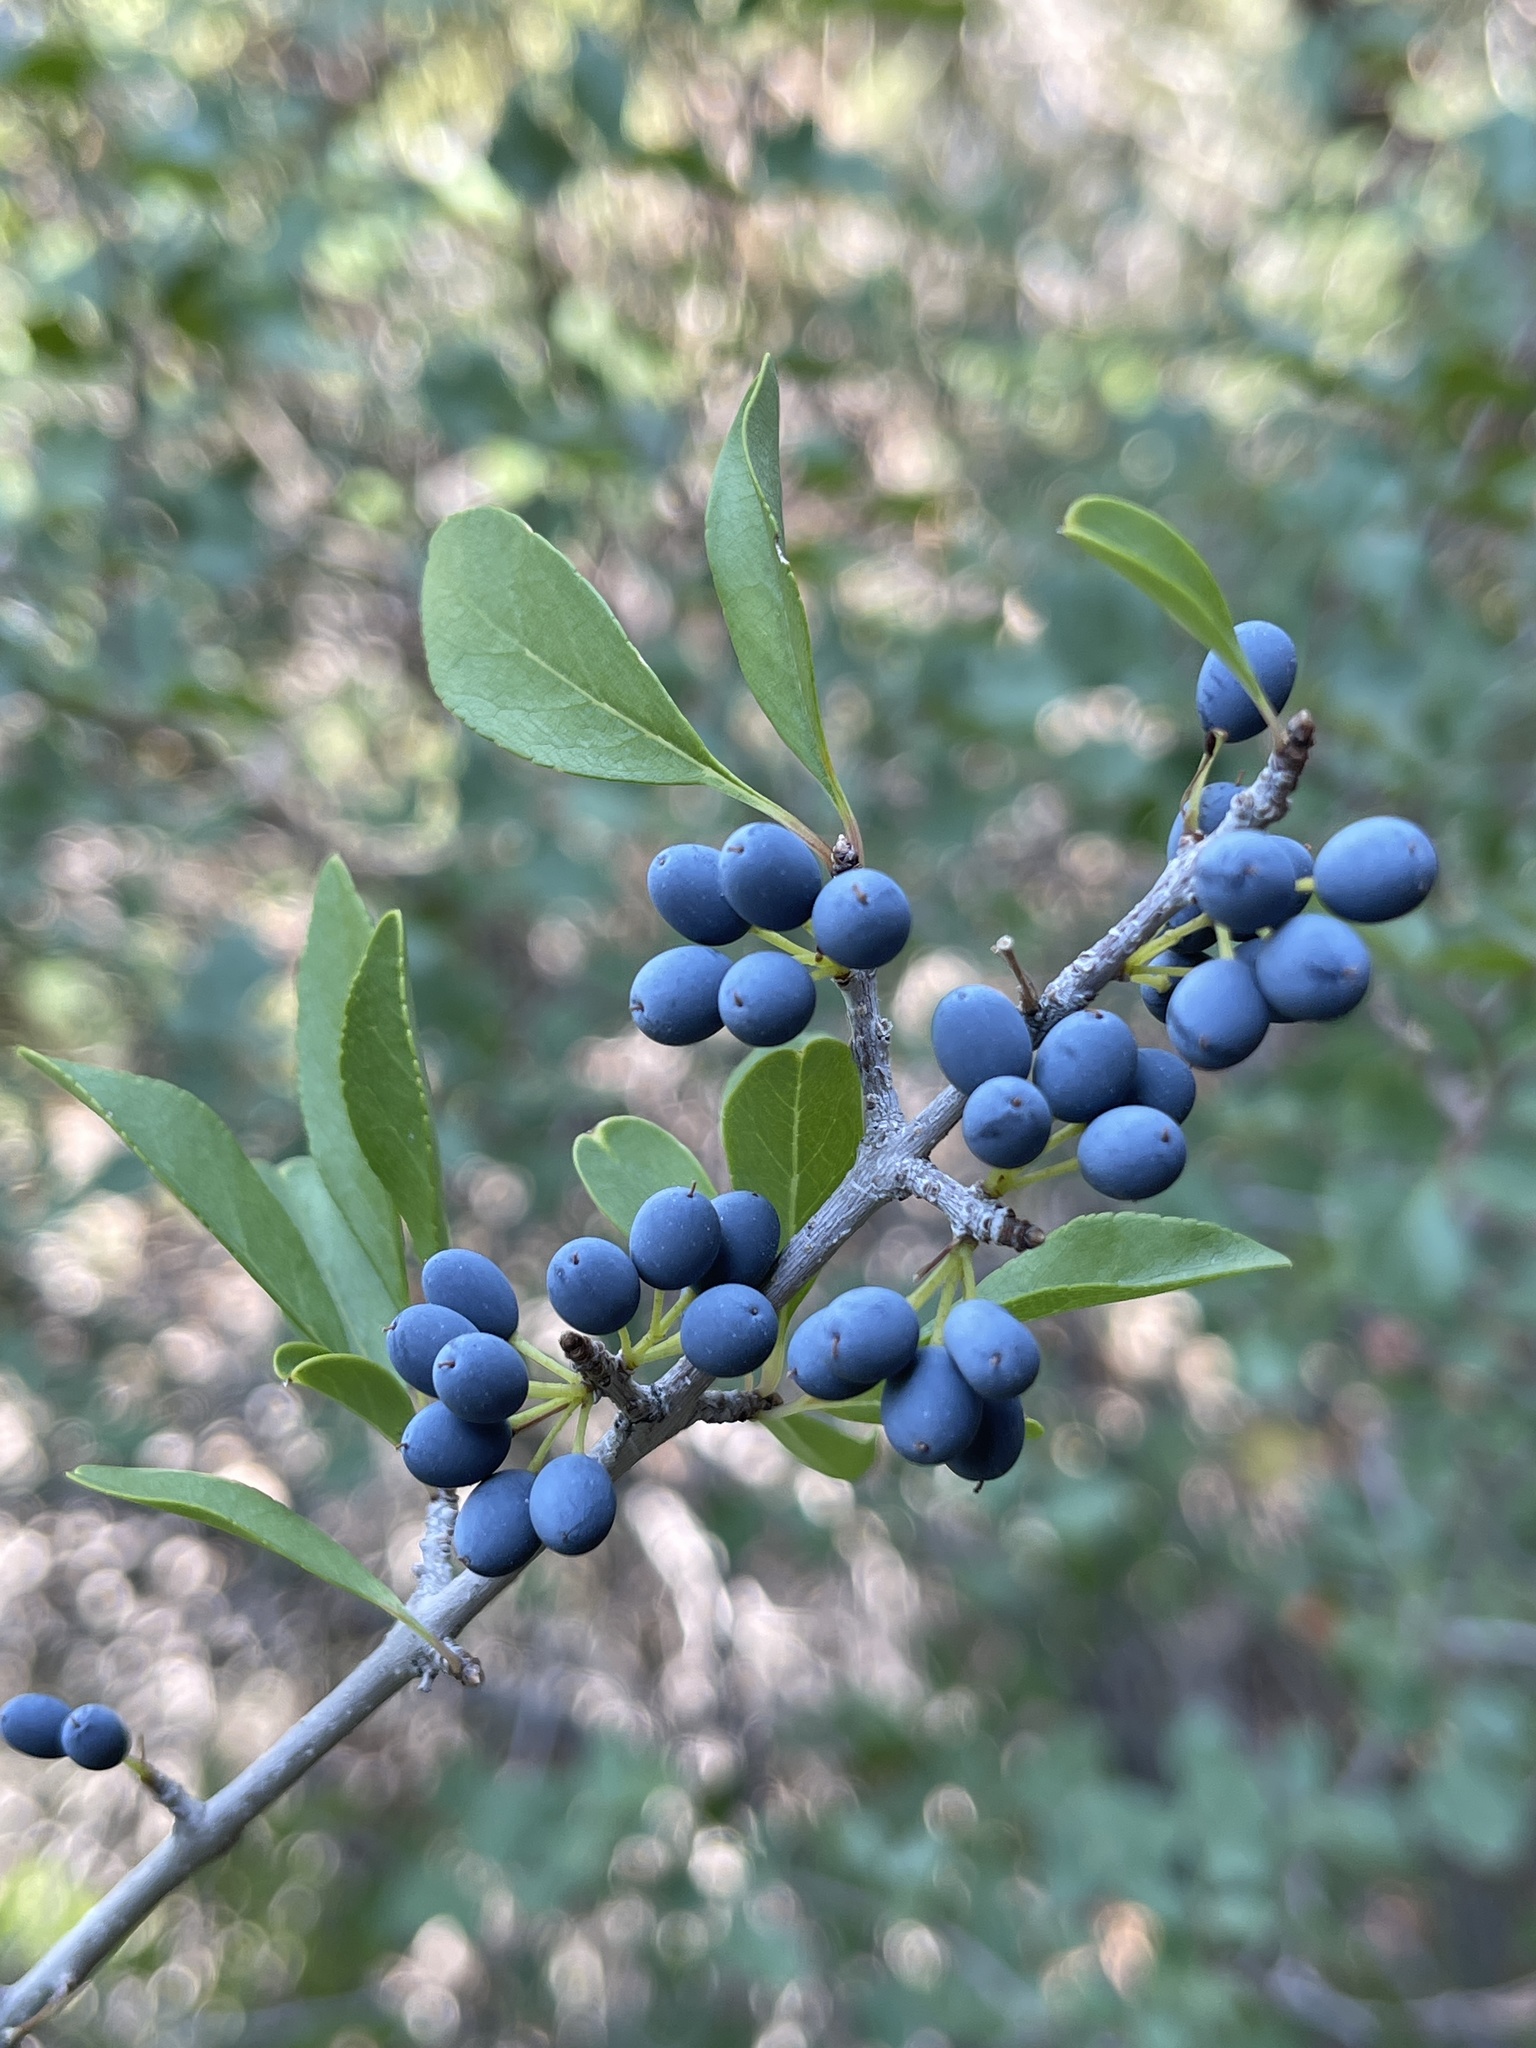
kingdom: Plantae
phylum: Tracheophyta
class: Magnoliopsida
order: Lamiales
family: Oleaceae
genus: Forestiera
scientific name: Forestiera pubescens
